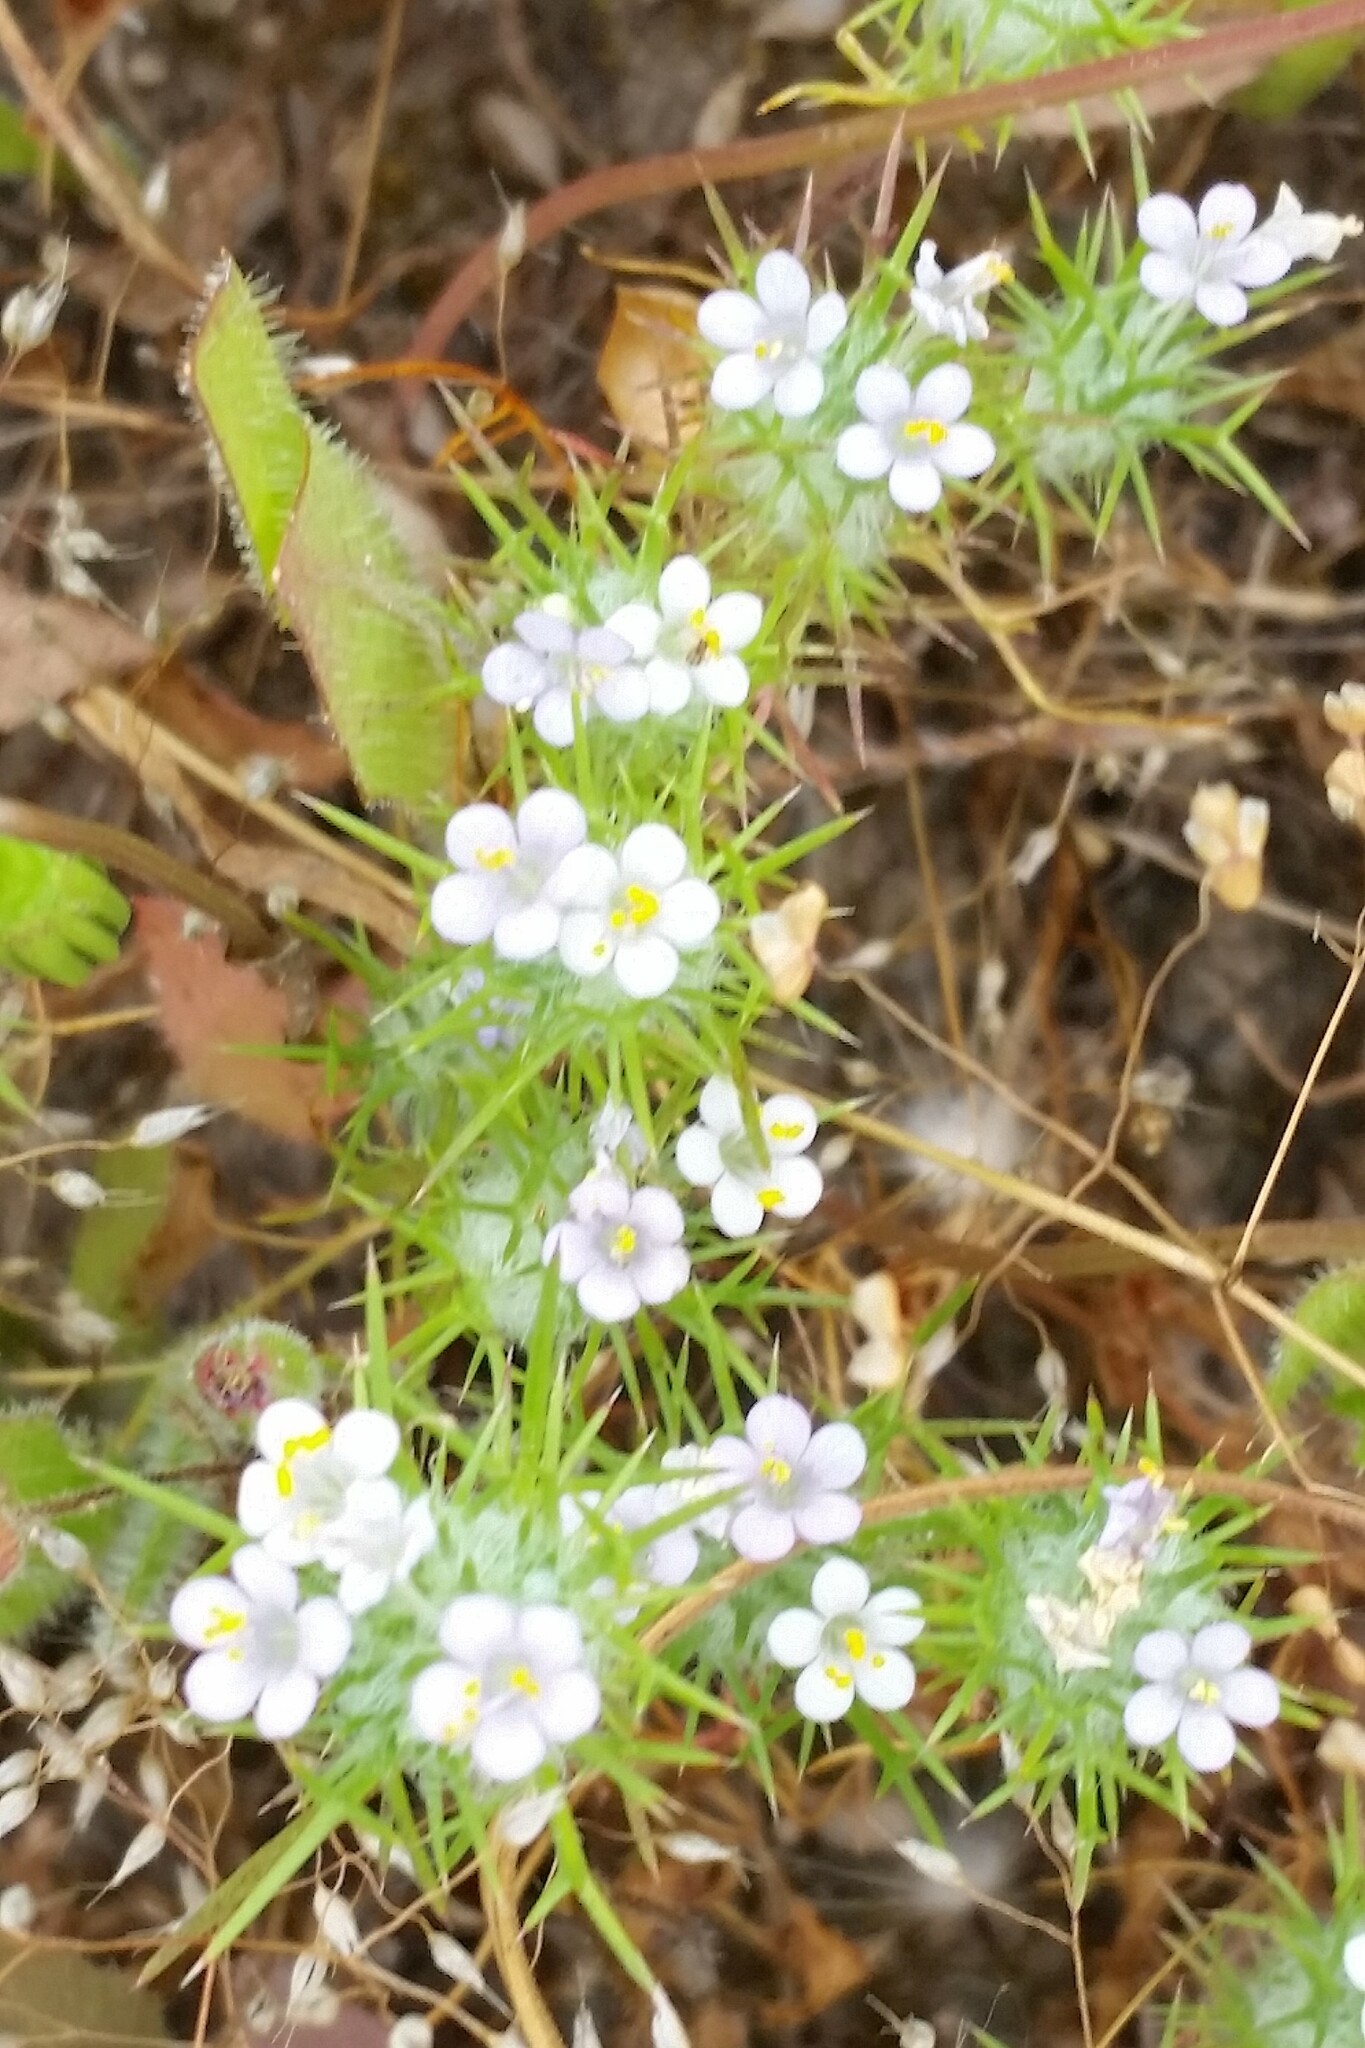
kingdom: Plantae
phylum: Tracheophyta
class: Magnoliopsida
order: Ericales
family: Polemoniaceae
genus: Navarretia
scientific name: Navarretia intertexta
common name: Needle-leaved navarretia
